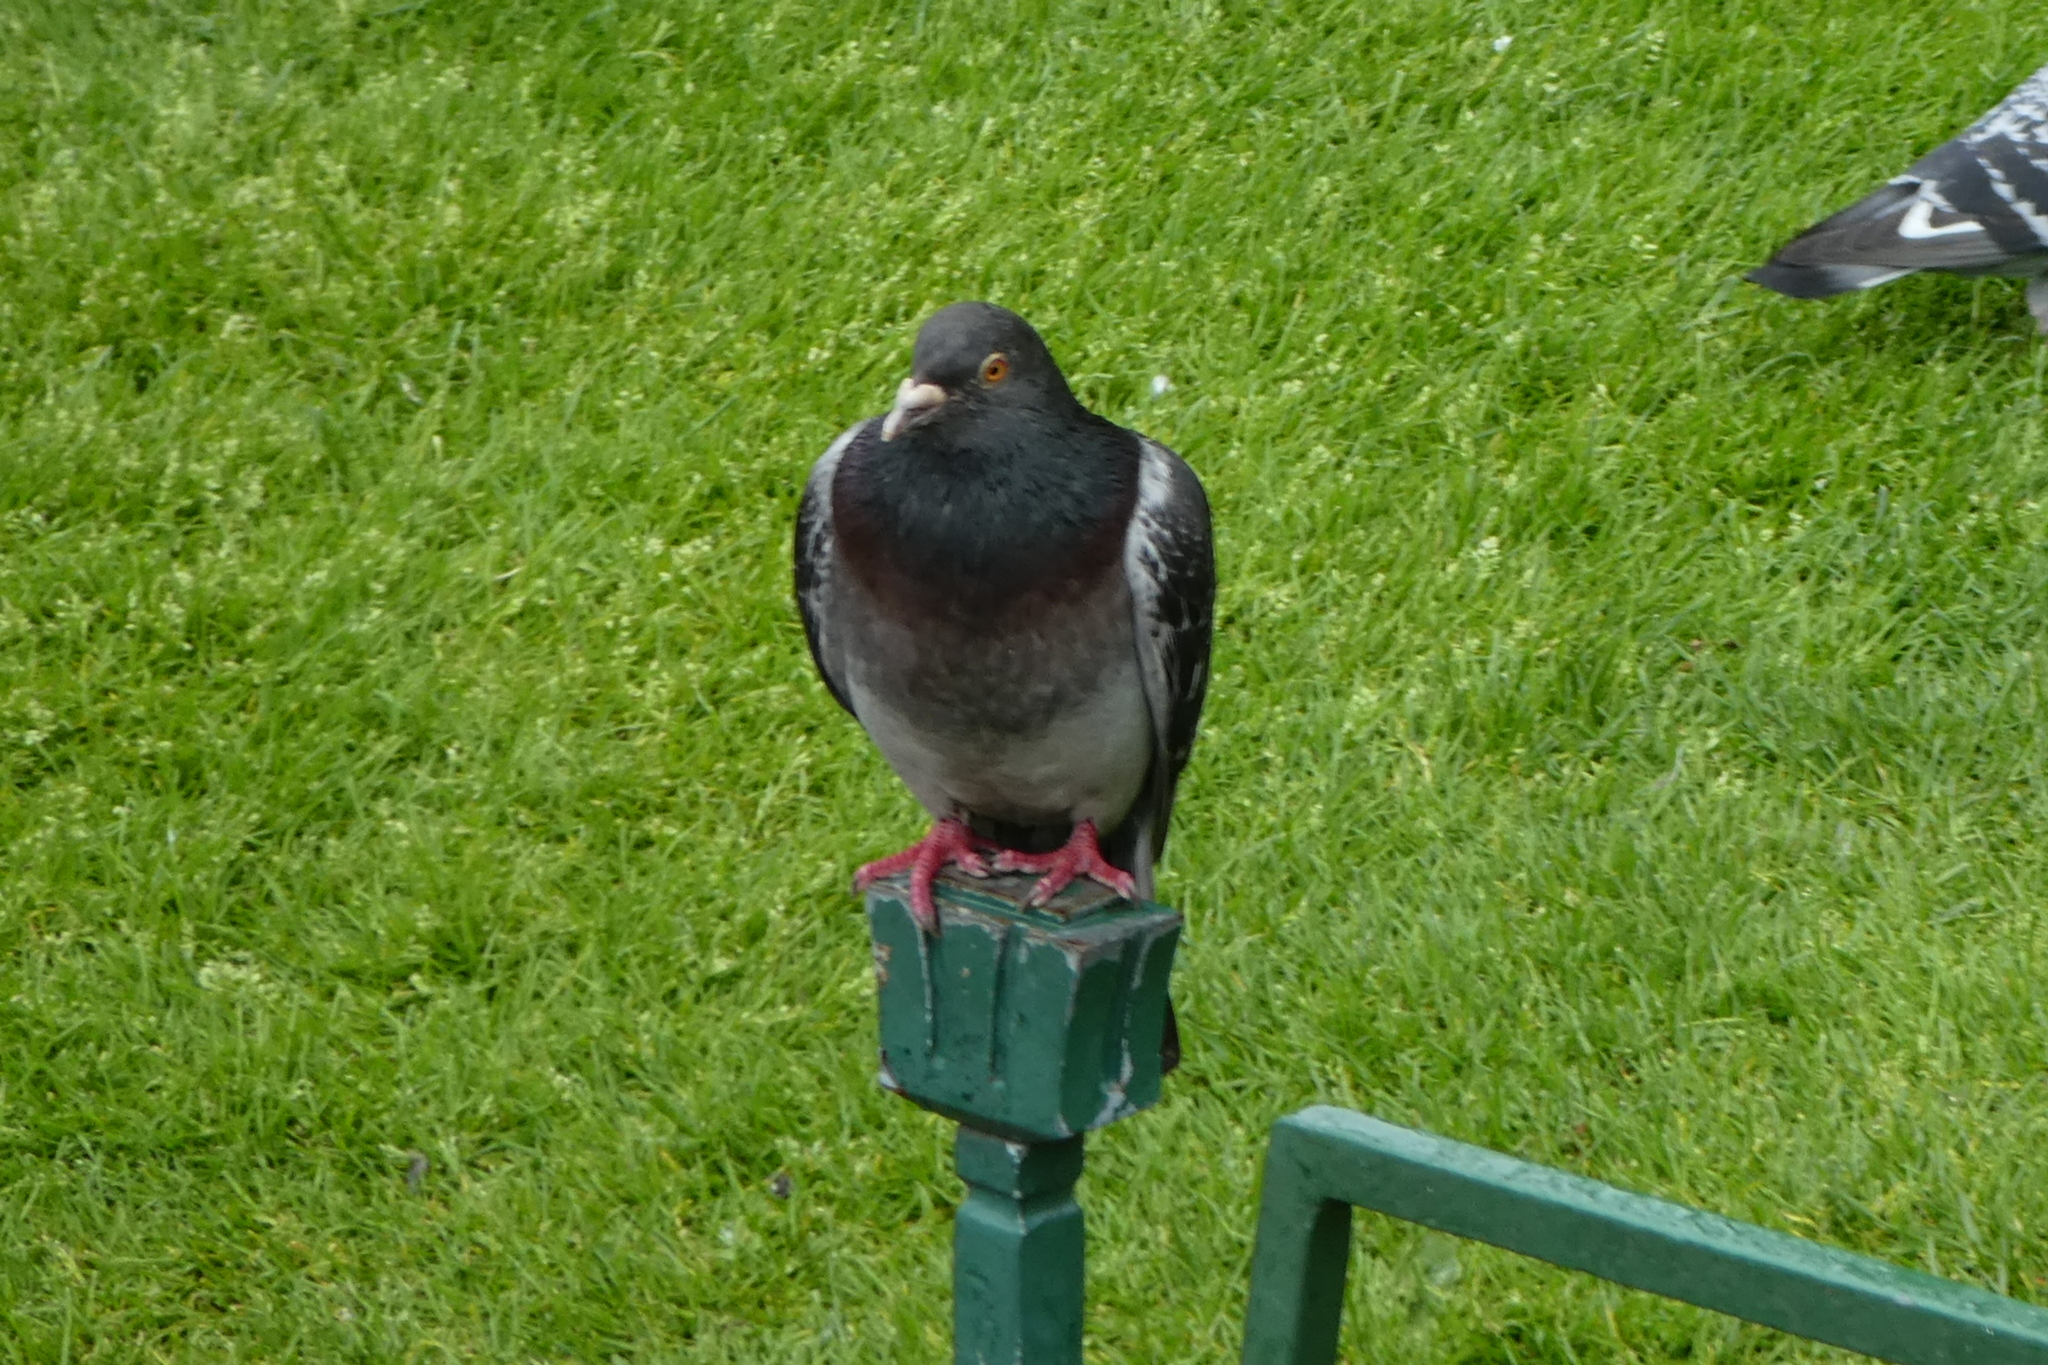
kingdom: Animalia
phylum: Chordata
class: Aves
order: Columbiformes
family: Columbidae
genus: Columba
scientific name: Columba livia
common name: Rock pigeon
